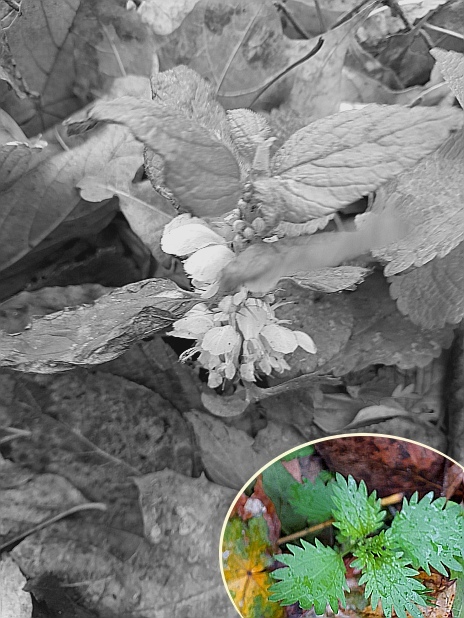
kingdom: Plantae
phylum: Tracheophyta
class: Magnoliopsida
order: Rosales
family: Urticaceae
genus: Urtica
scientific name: Urtica urens
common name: Dwarf nettle
